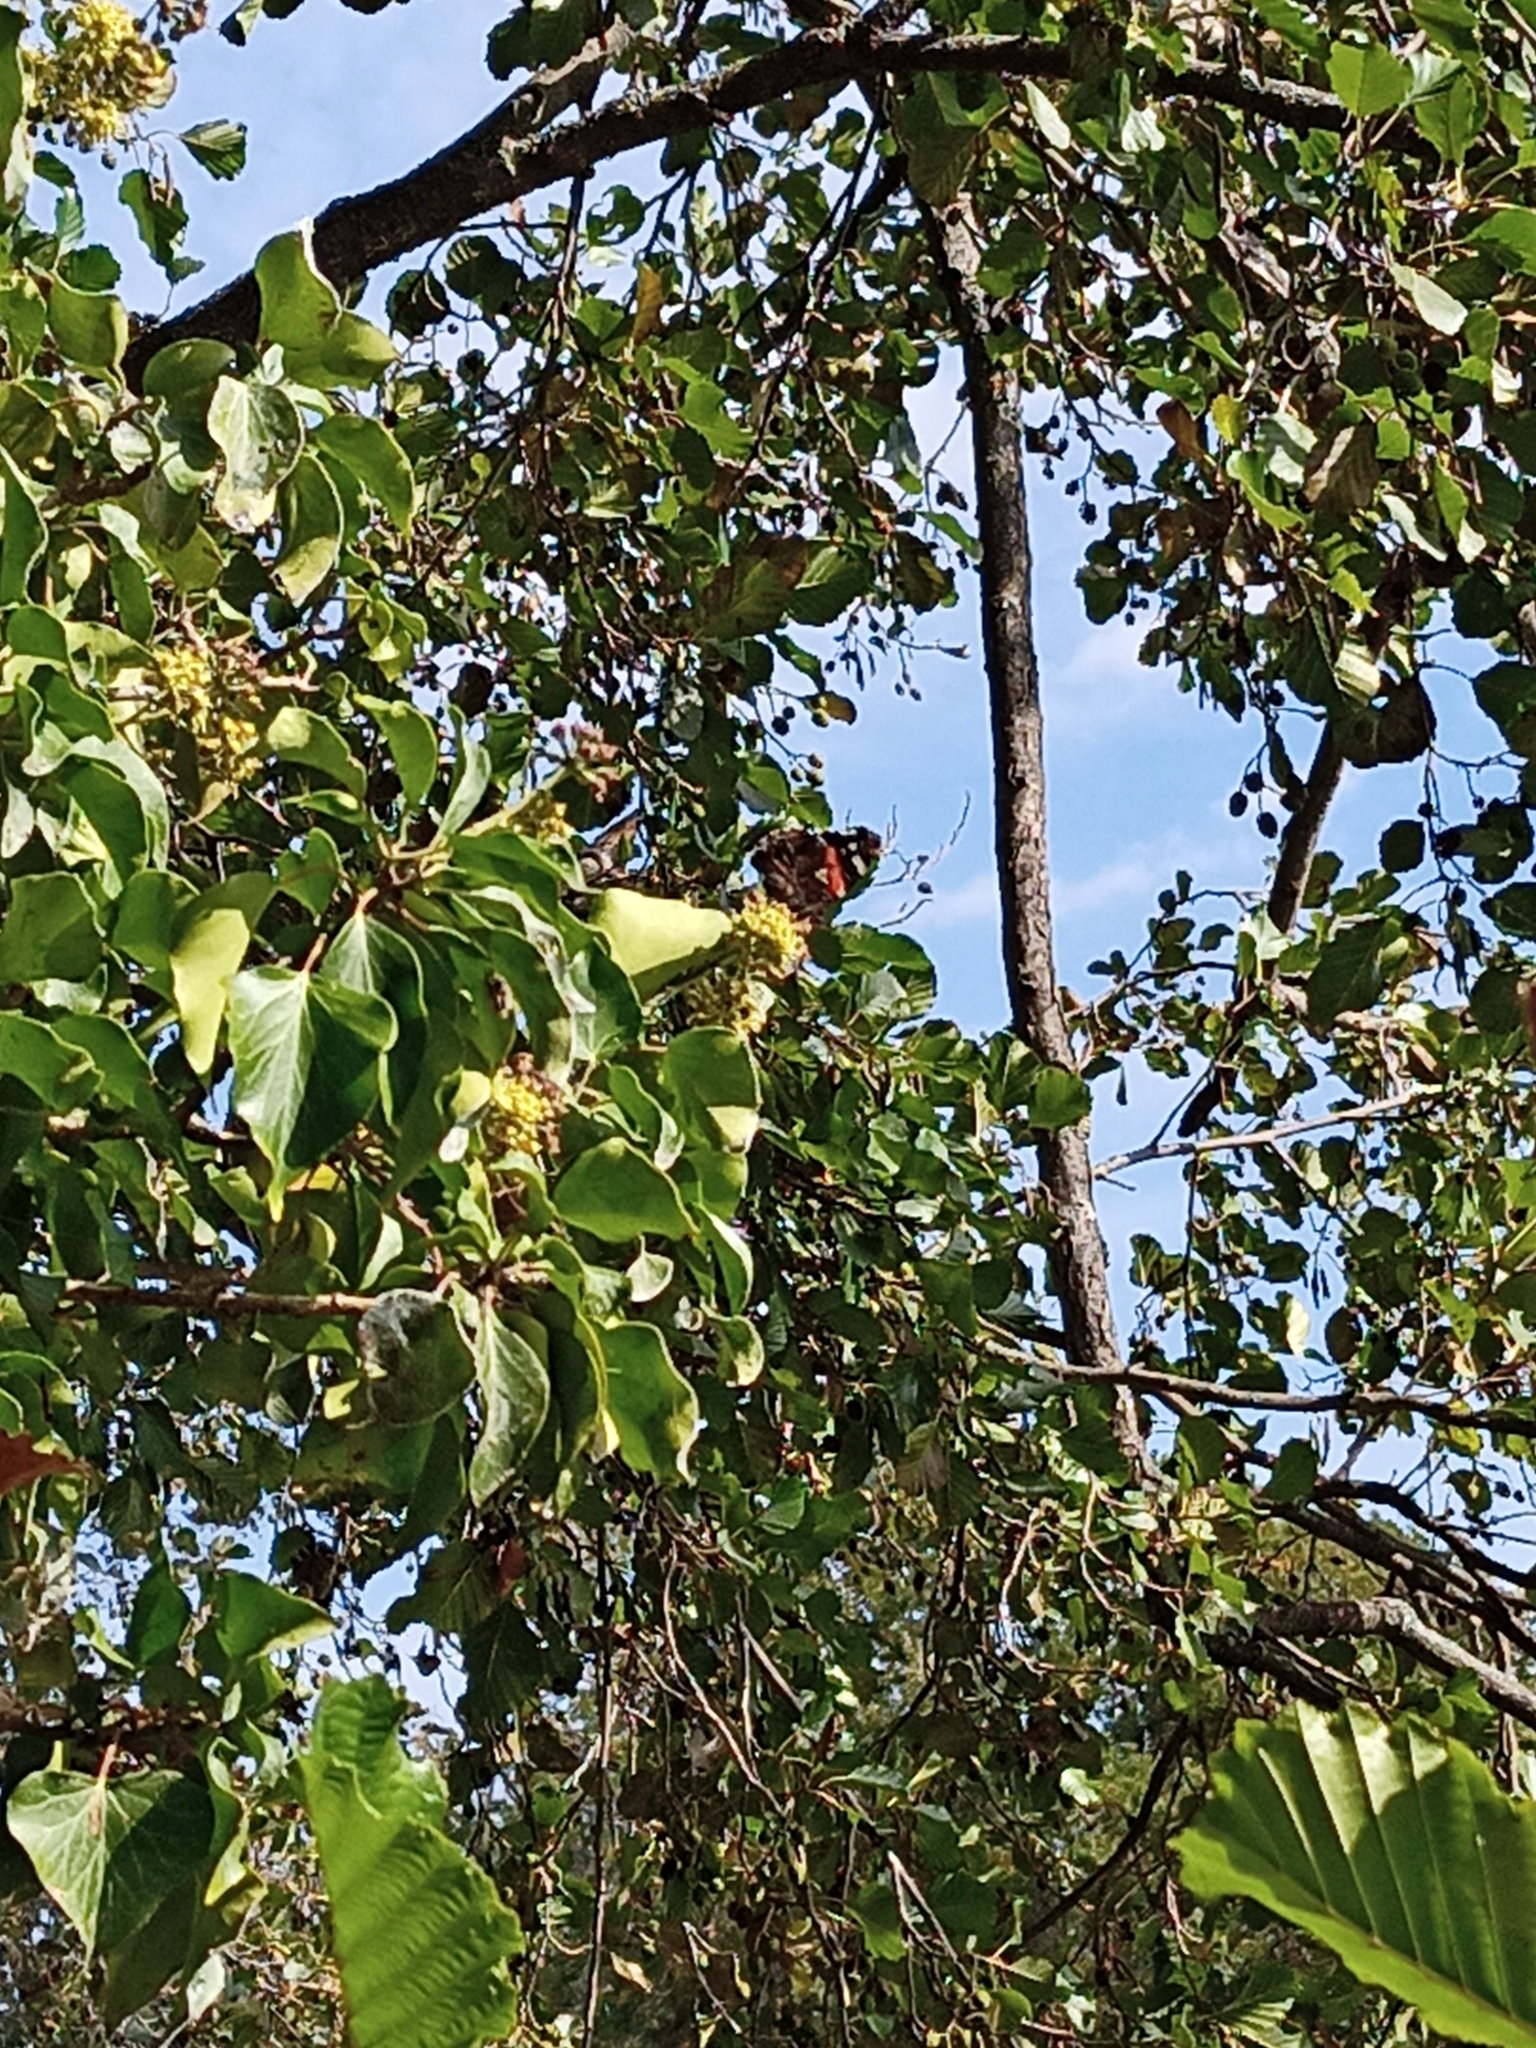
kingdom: Animalia
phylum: Arthropoda
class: Insecta
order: Lepidoptera
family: Nymphalidae
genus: Vanessa
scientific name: Vanessa atalanta
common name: Red admiral
